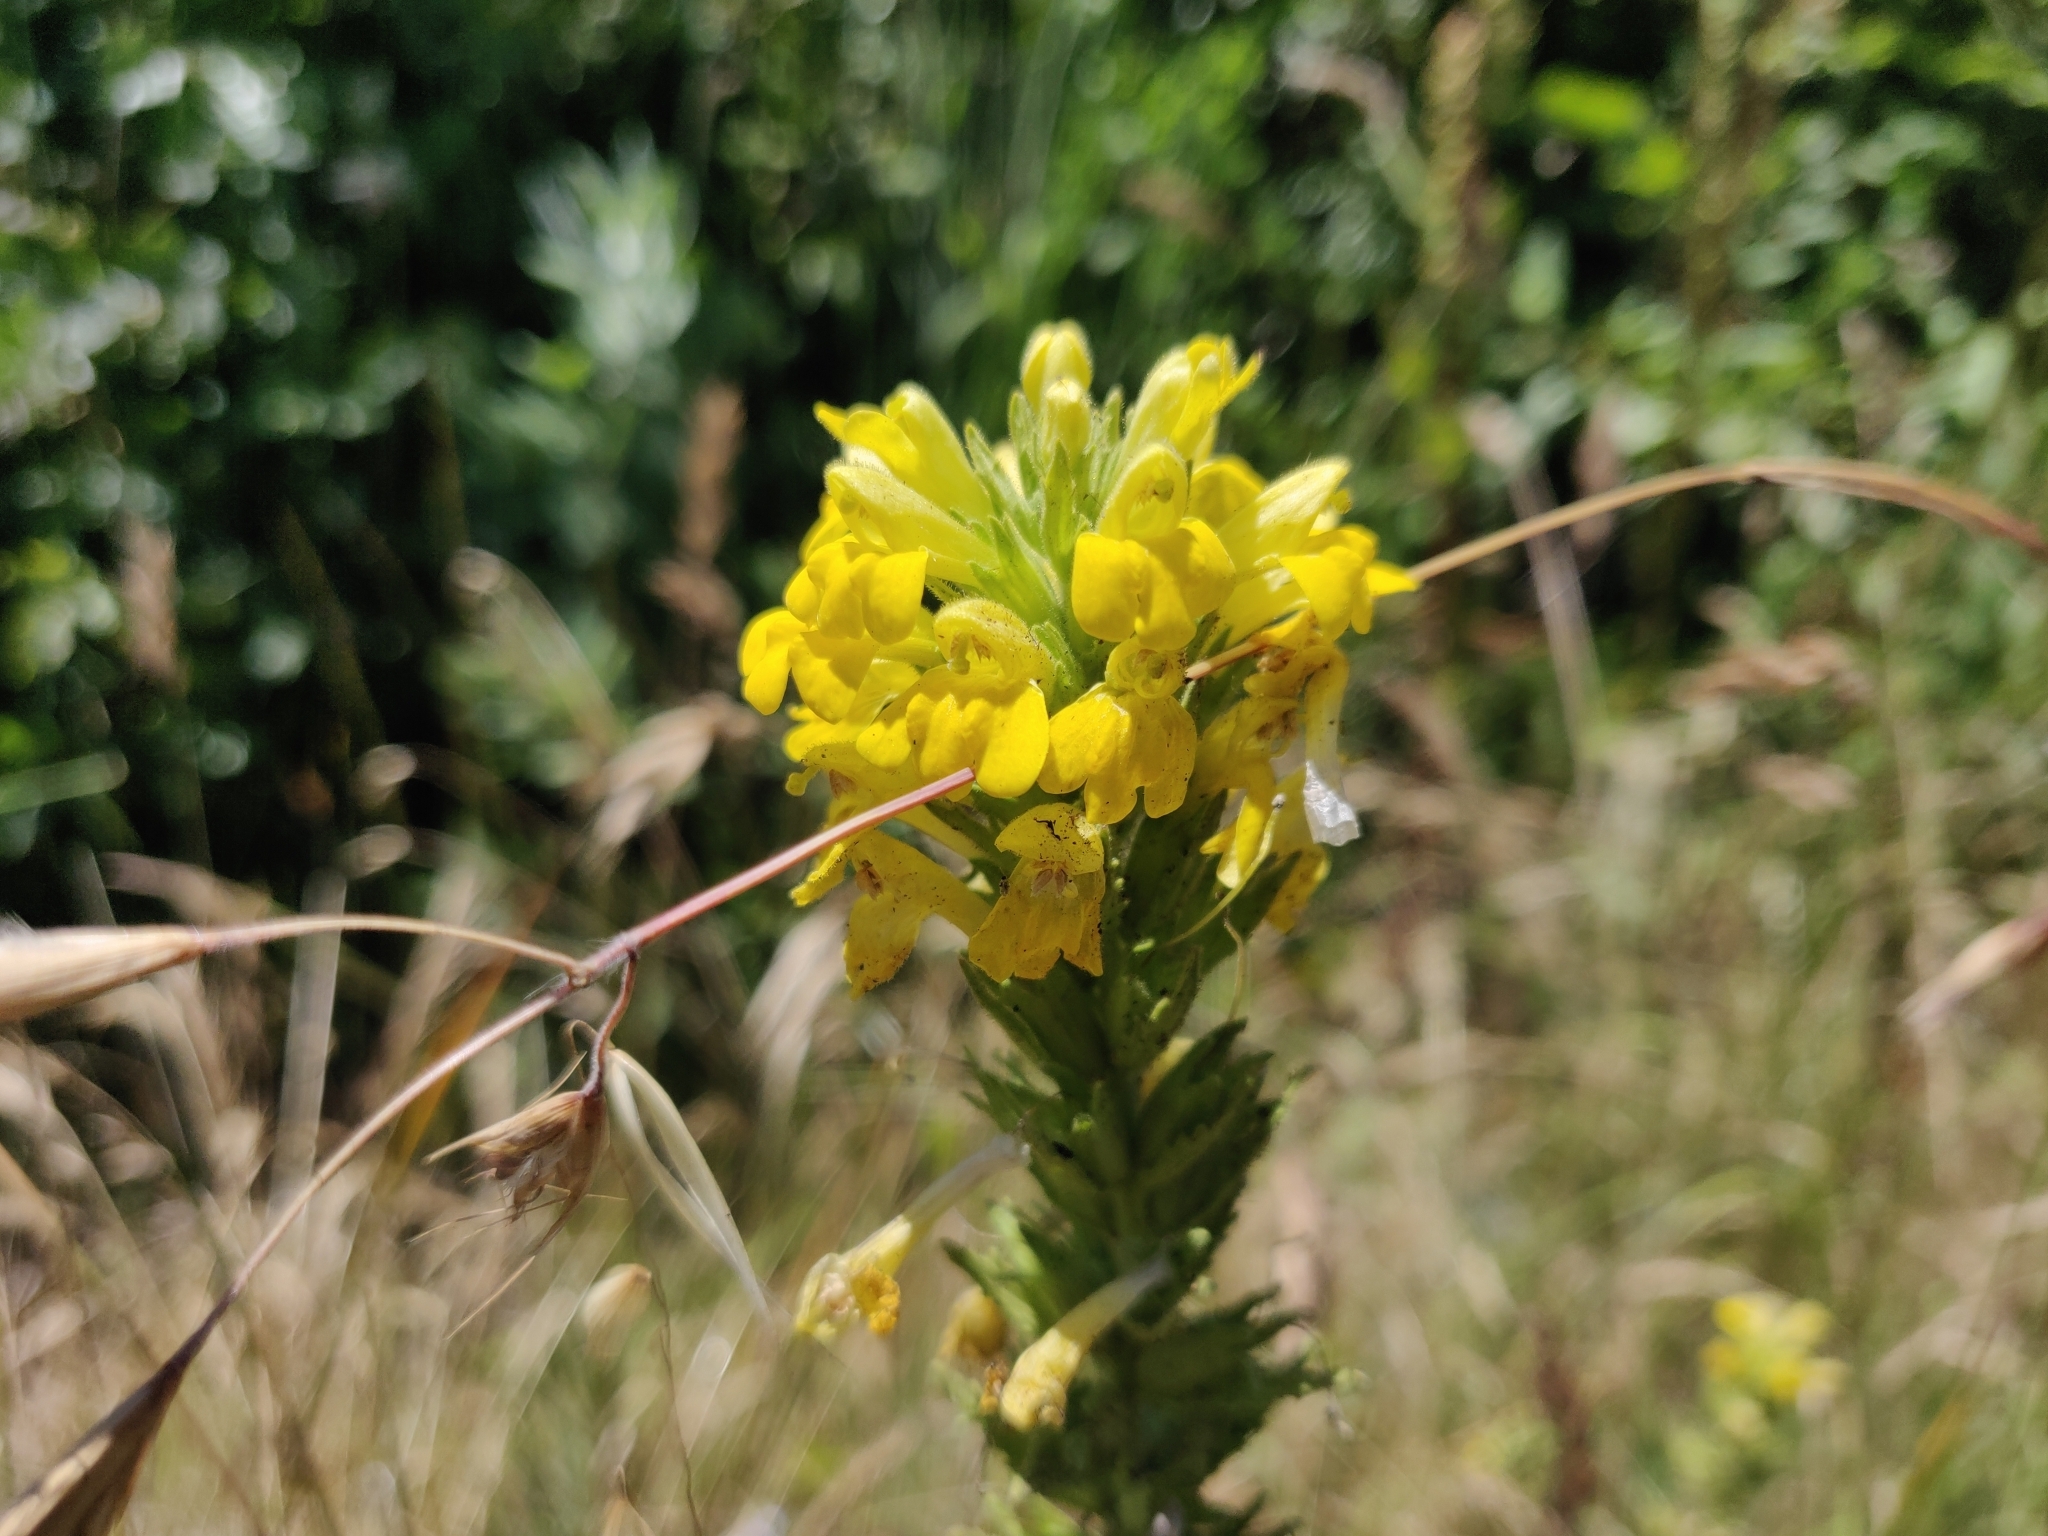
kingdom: Plantae
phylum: Tracheophyta
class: Magnoliopsida
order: Lamiales
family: Orobanchaceae
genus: Bellardia
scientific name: Bellardia viscosa
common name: Sticky parentucellia
